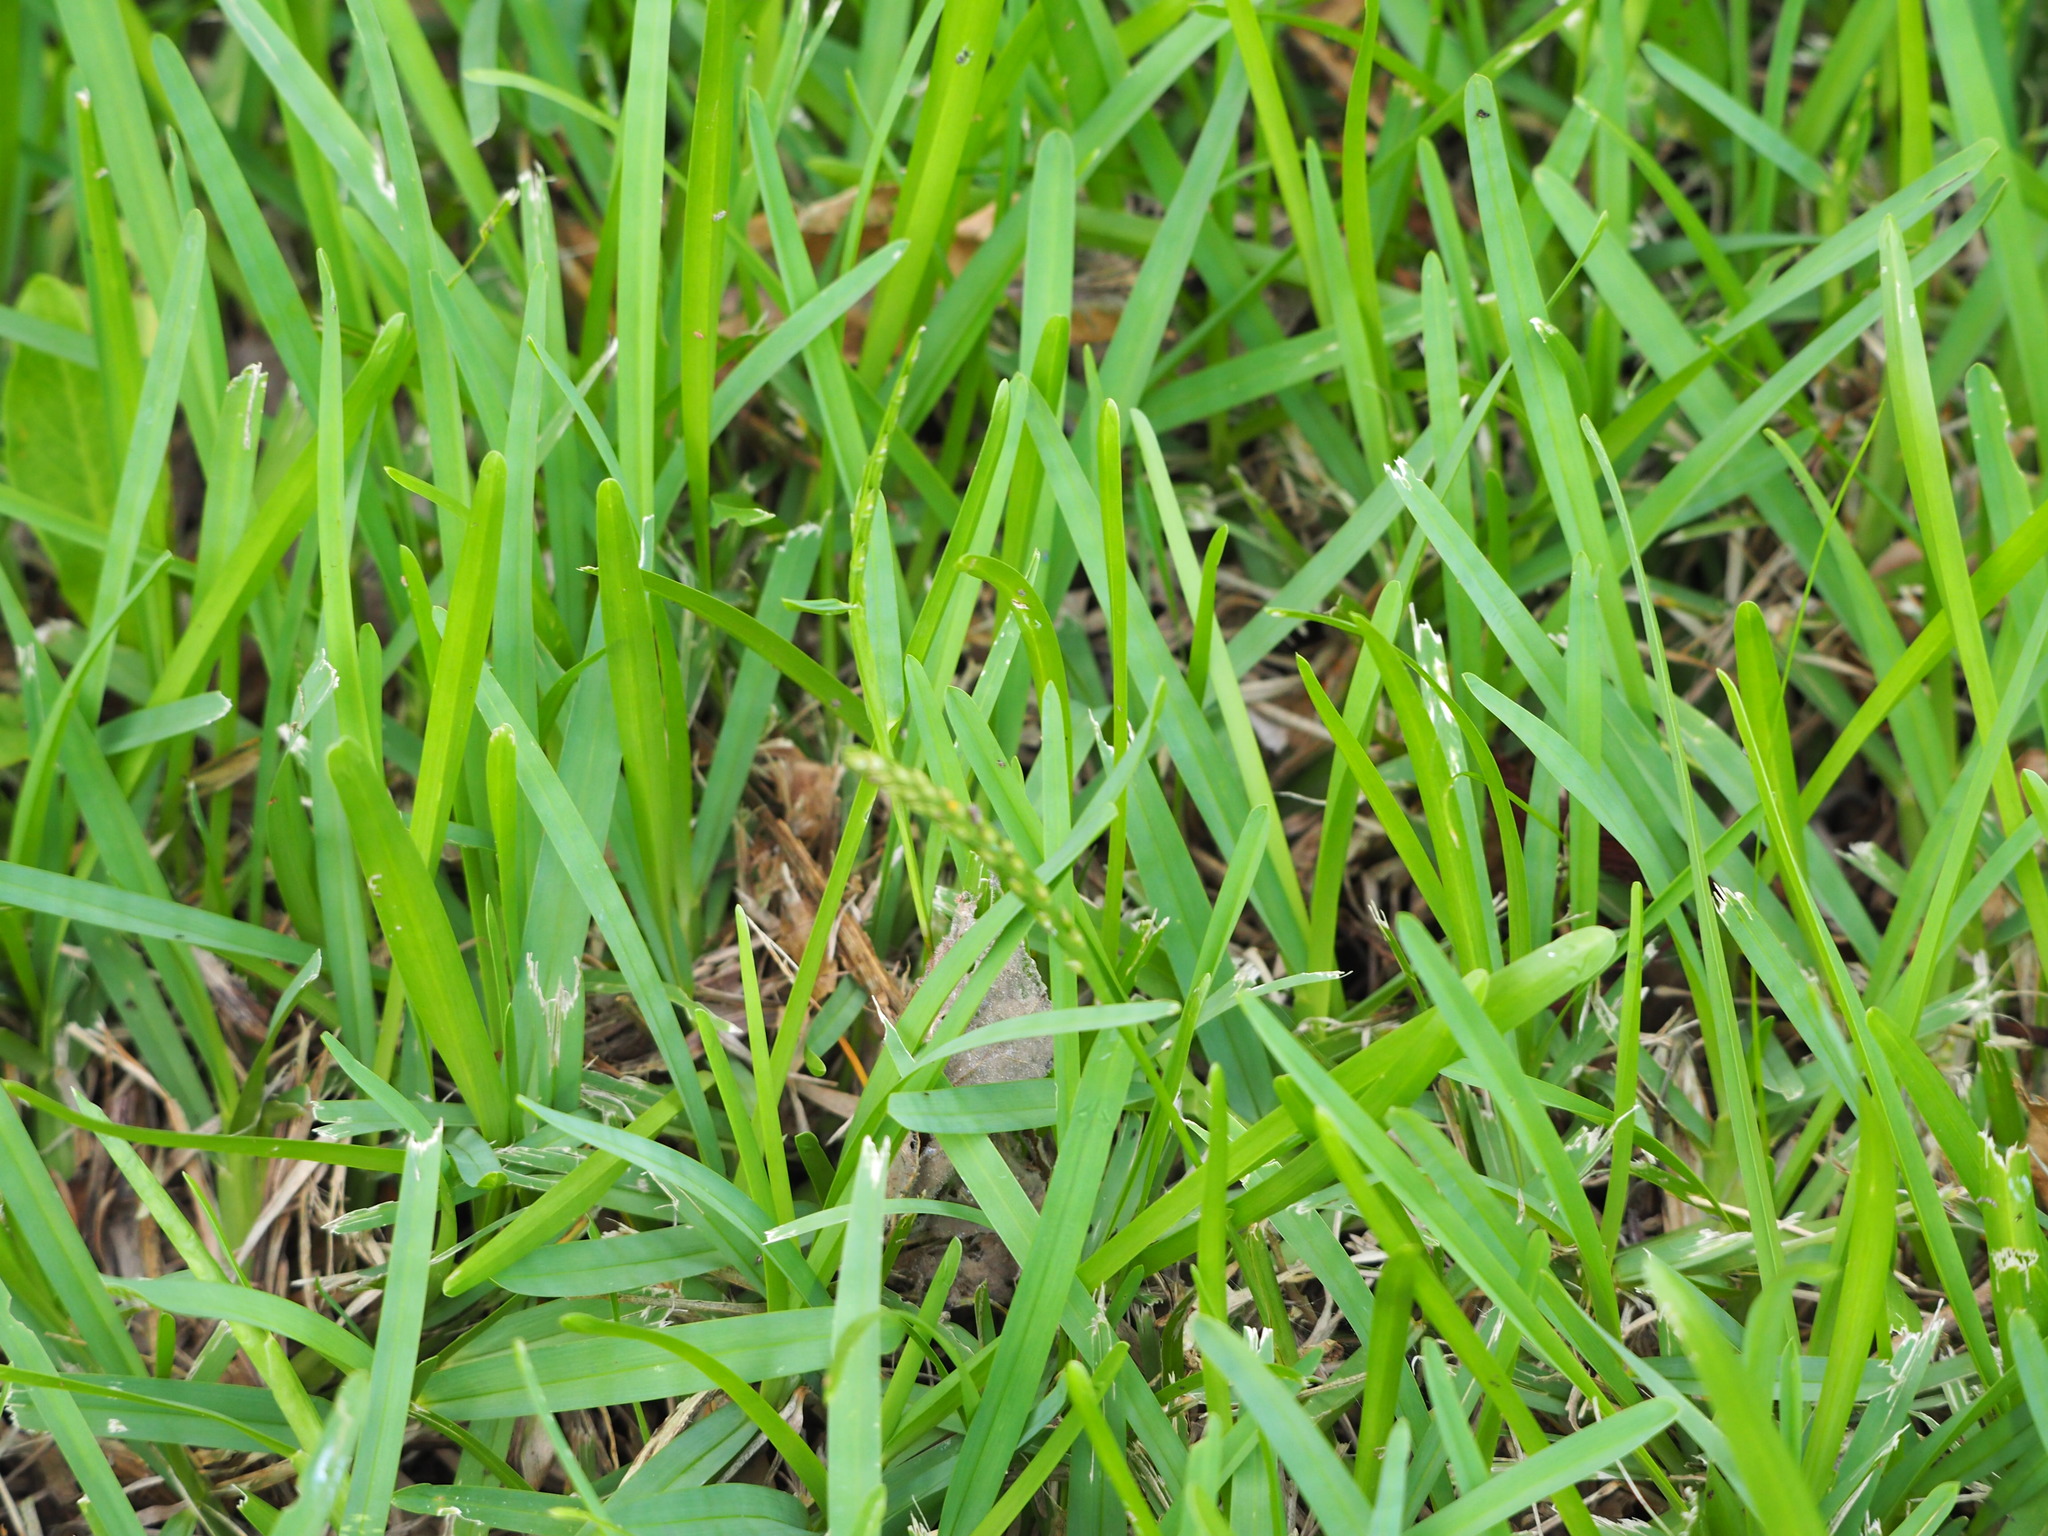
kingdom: Plantae
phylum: Tracheophyta
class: Liliopsida
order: Poales
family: Poaceae
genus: Stenotaphrum
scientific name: Stenotaphrum secundatum
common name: St. augustine grass
